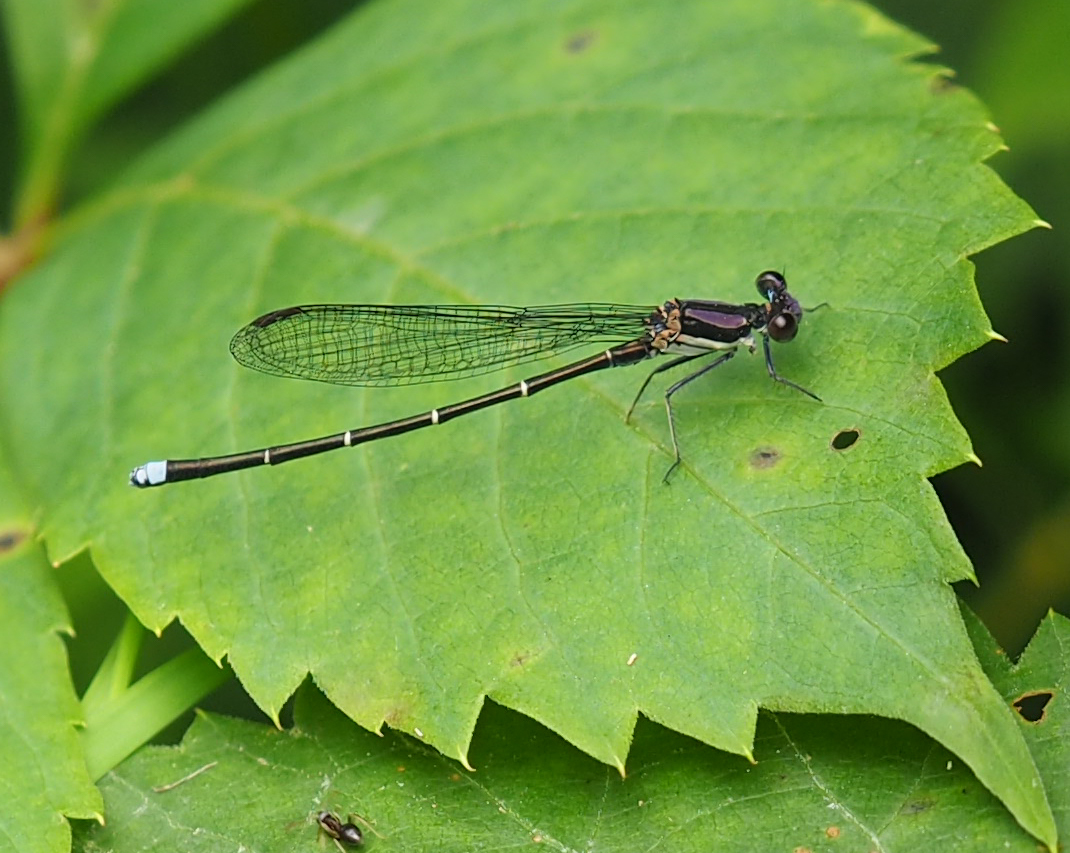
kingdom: Animalia
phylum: Arthropoda
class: Insecta
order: Odonata
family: Coenagrionidae
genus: Argia
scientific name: Argia tibialis
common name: Blue-tipped dancer
